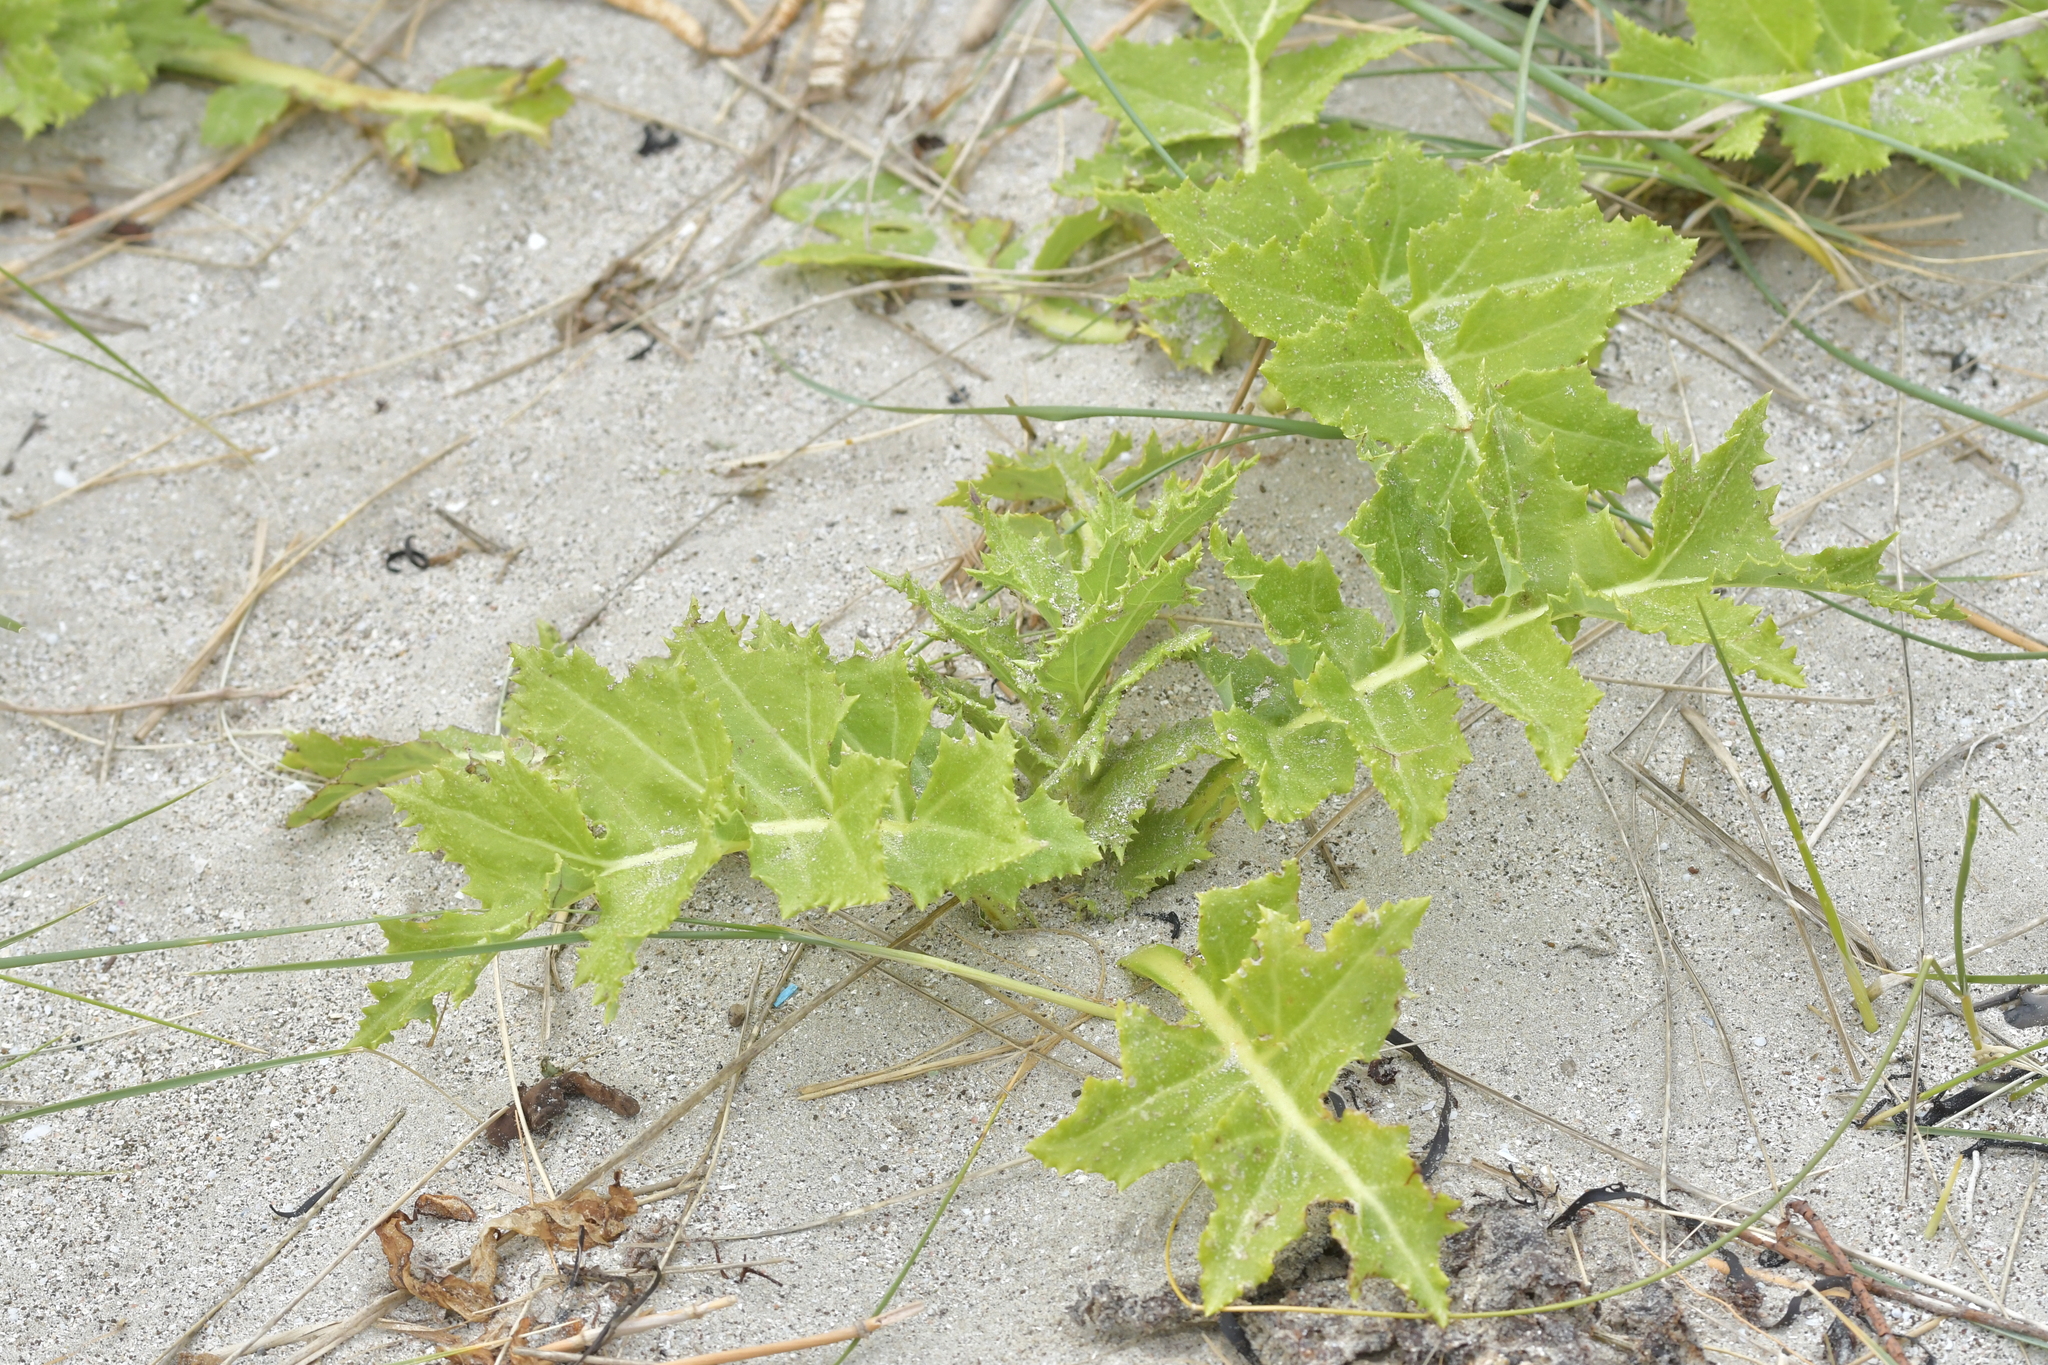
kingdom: Plantae
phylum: Tracheophyta
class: Magnoliopsida
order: Asterales
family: Asteraceae
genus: Sonchus
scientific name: Sonchus grandifolius
